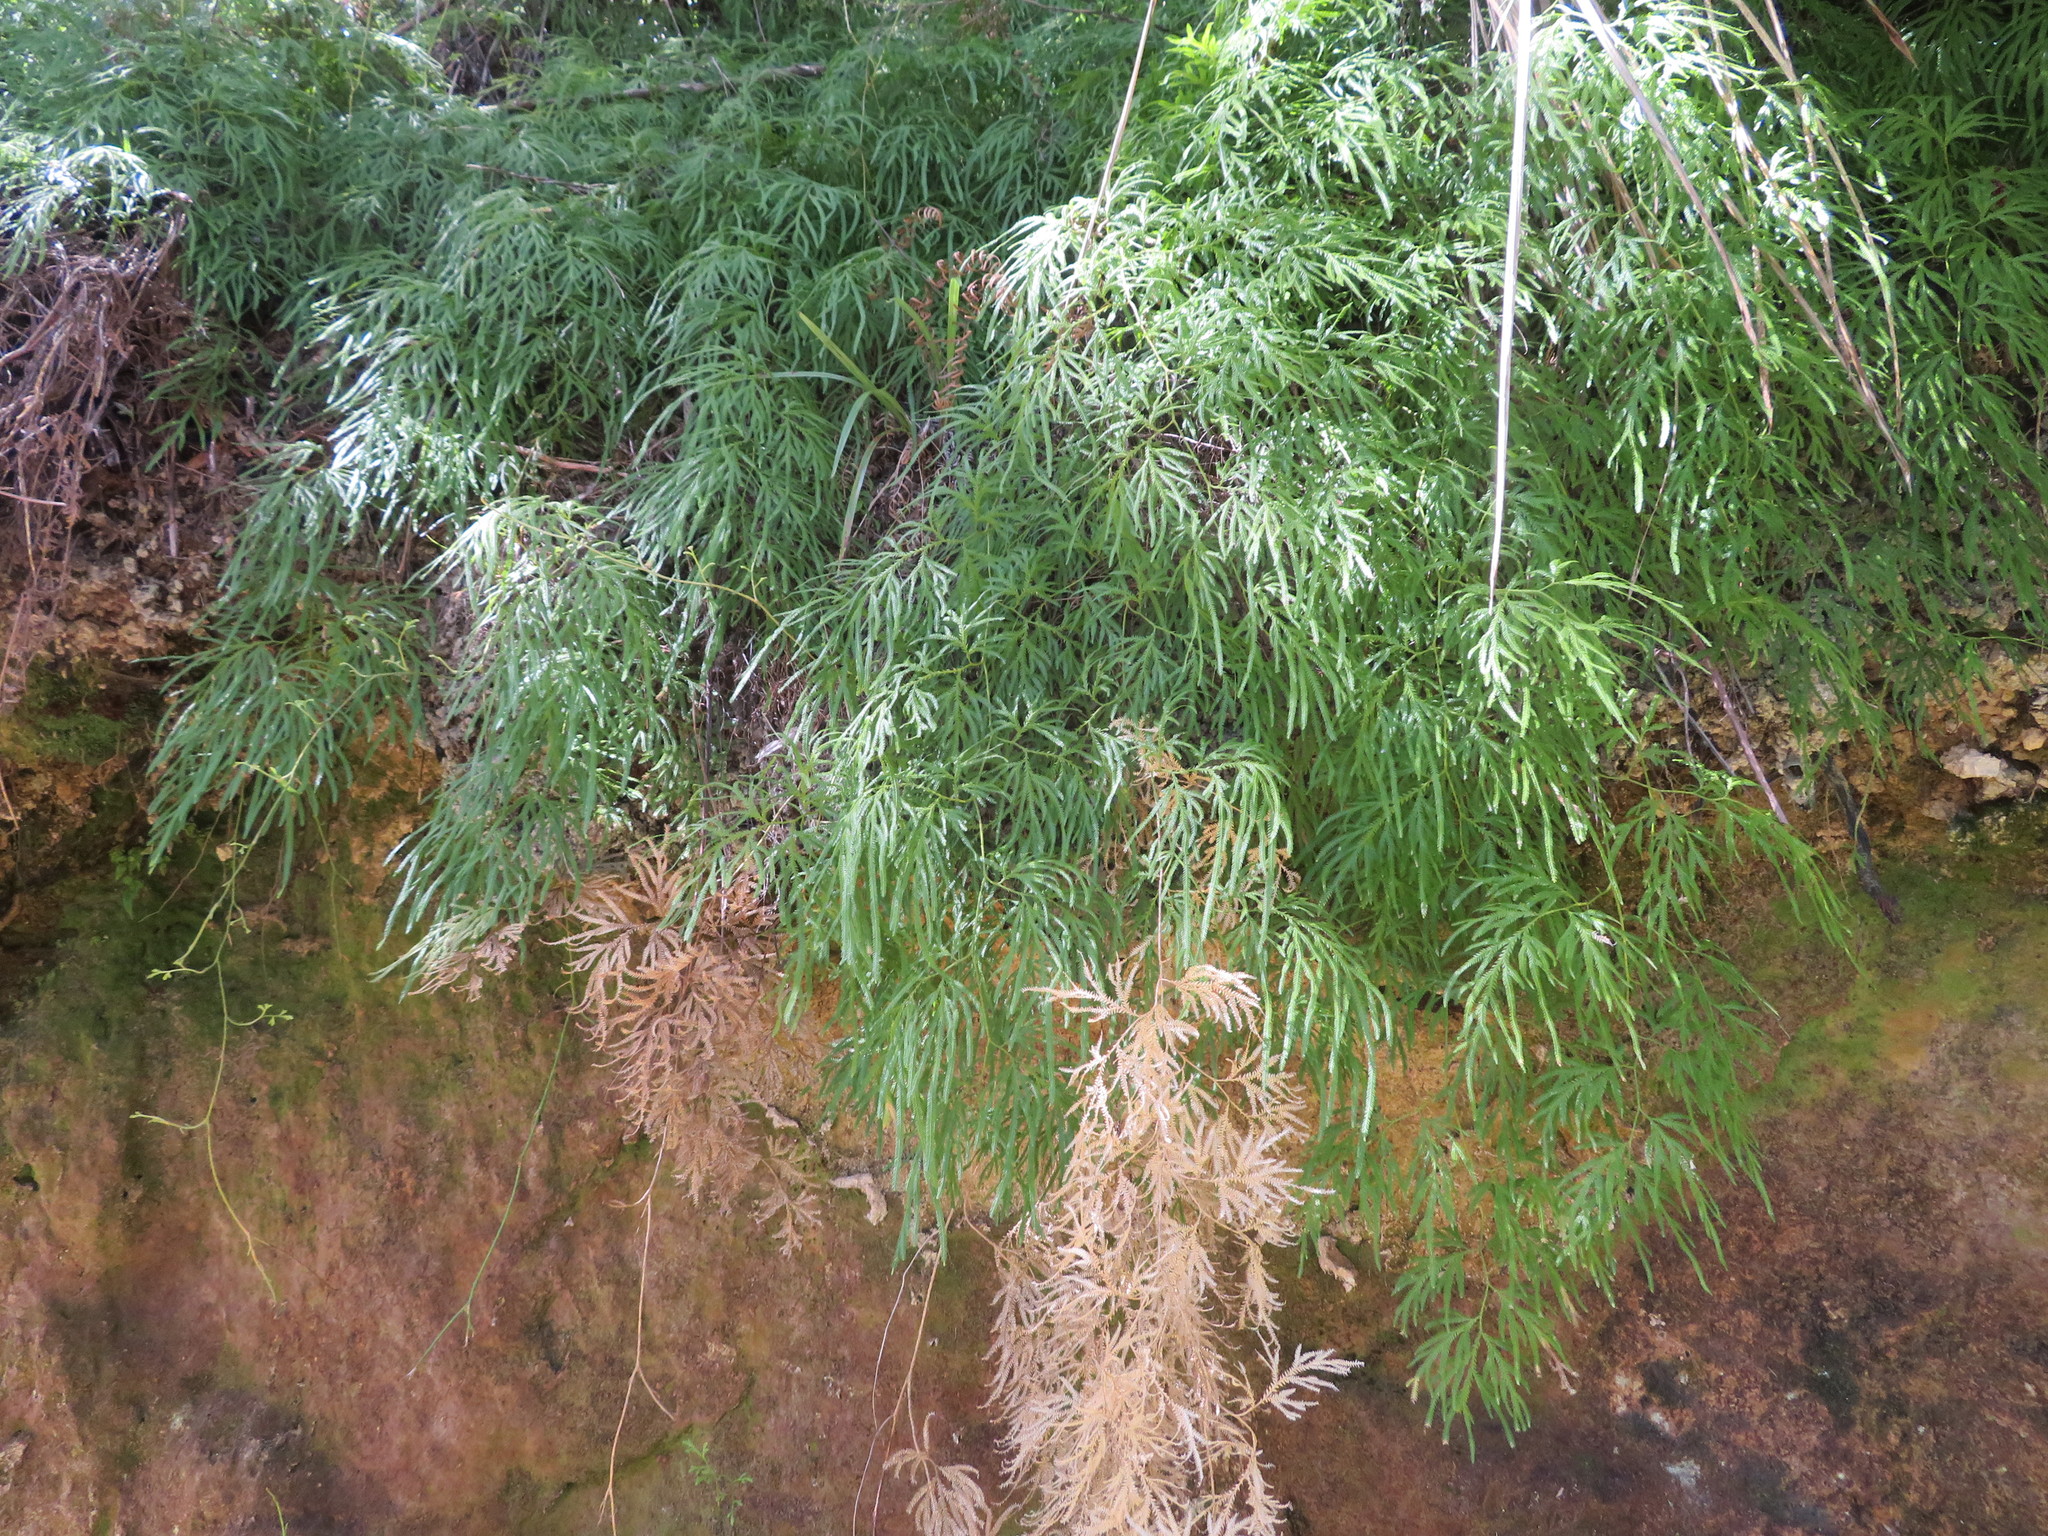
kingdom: Plantae
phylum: Tracheophyta
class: Lycopodiopsida
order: Lycopodiales
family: Lycopodiaceae
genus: Lycopodium
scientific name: Lycopodium volubile
